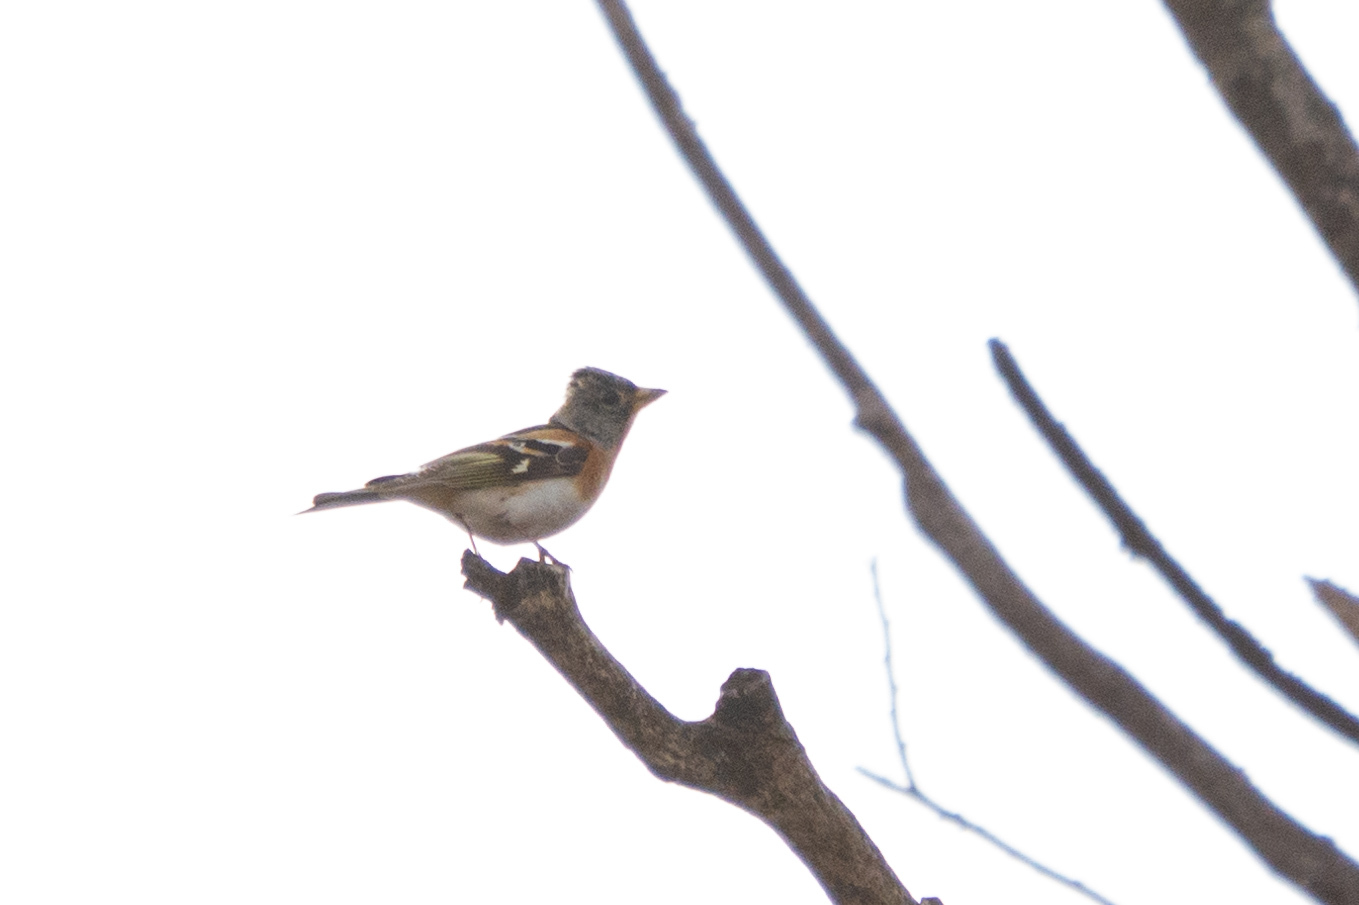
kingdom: Animalia
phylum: Chordata
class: Aves
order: Passeriformes
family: Fringillidae
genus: Fringilla
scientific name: Fringilla montifringilla
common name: Brambling
